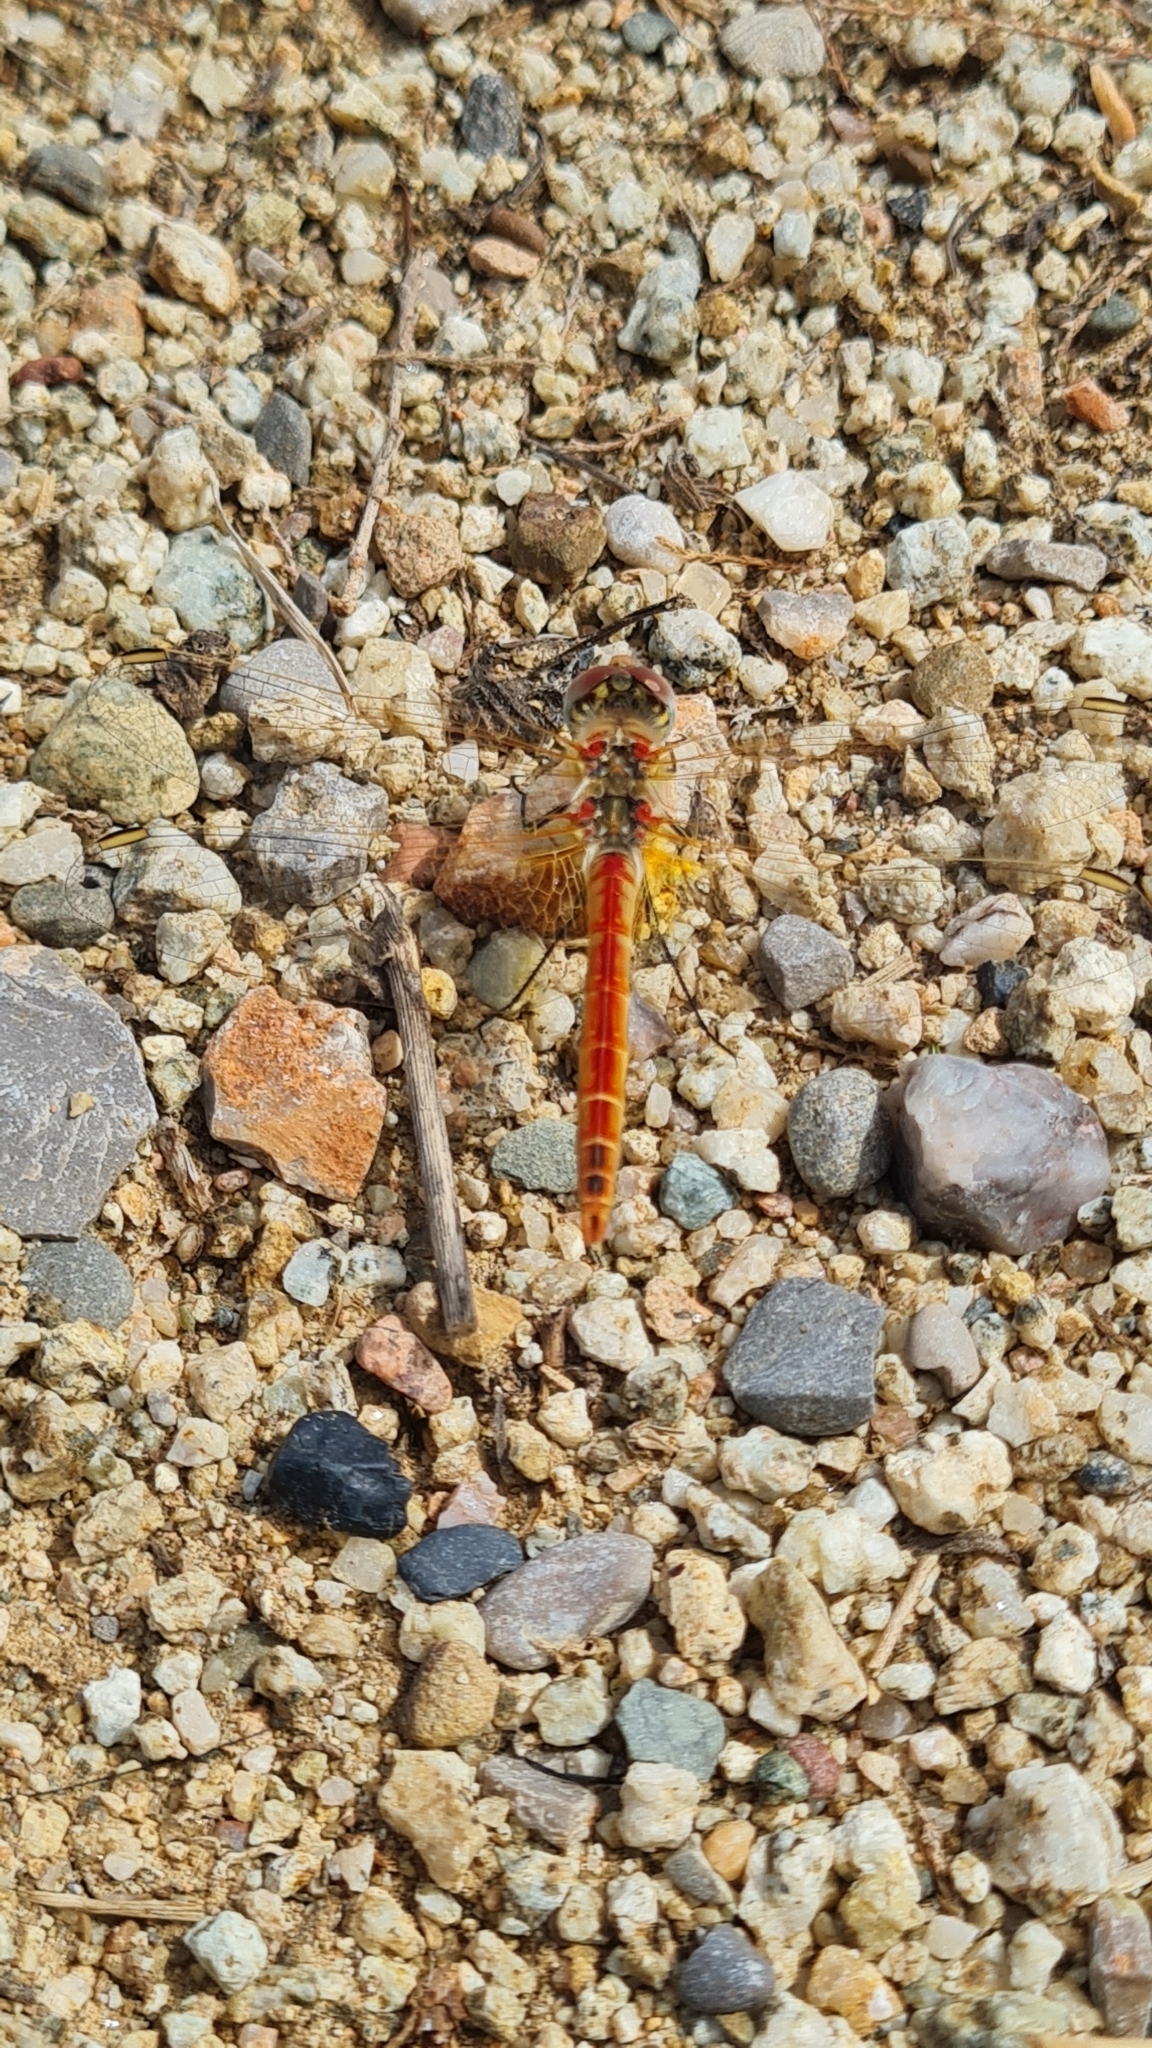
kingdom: Animalia
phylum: Arthropoda
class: Insecta
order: Odonata
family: Libellulidae
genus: Sympetrum
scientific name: Sympetrum fonscolombii
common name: Red-veined darter
